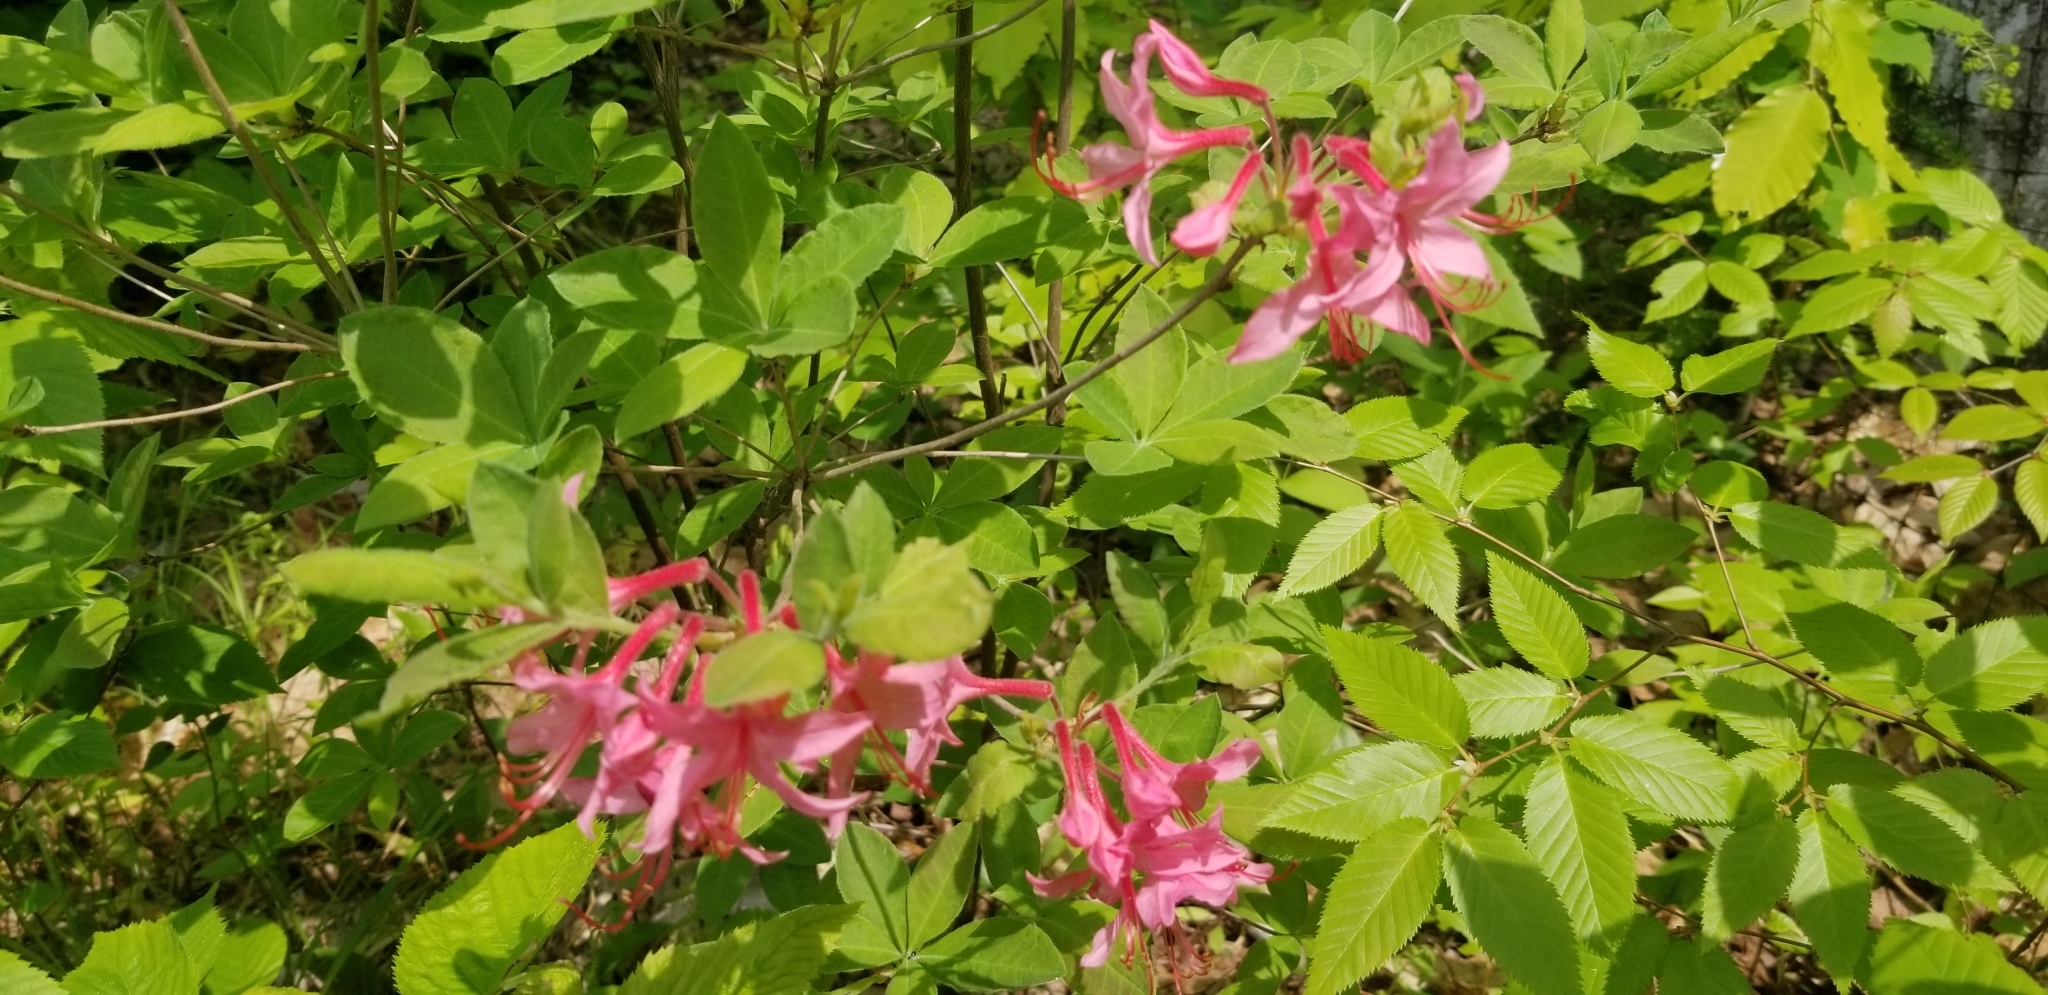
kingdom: Plantae
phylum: Tracheophyta
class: Magnoliopsida
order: Ericales
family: Ericaceae
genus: Rhododendron
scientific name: Rhododendron roseum
